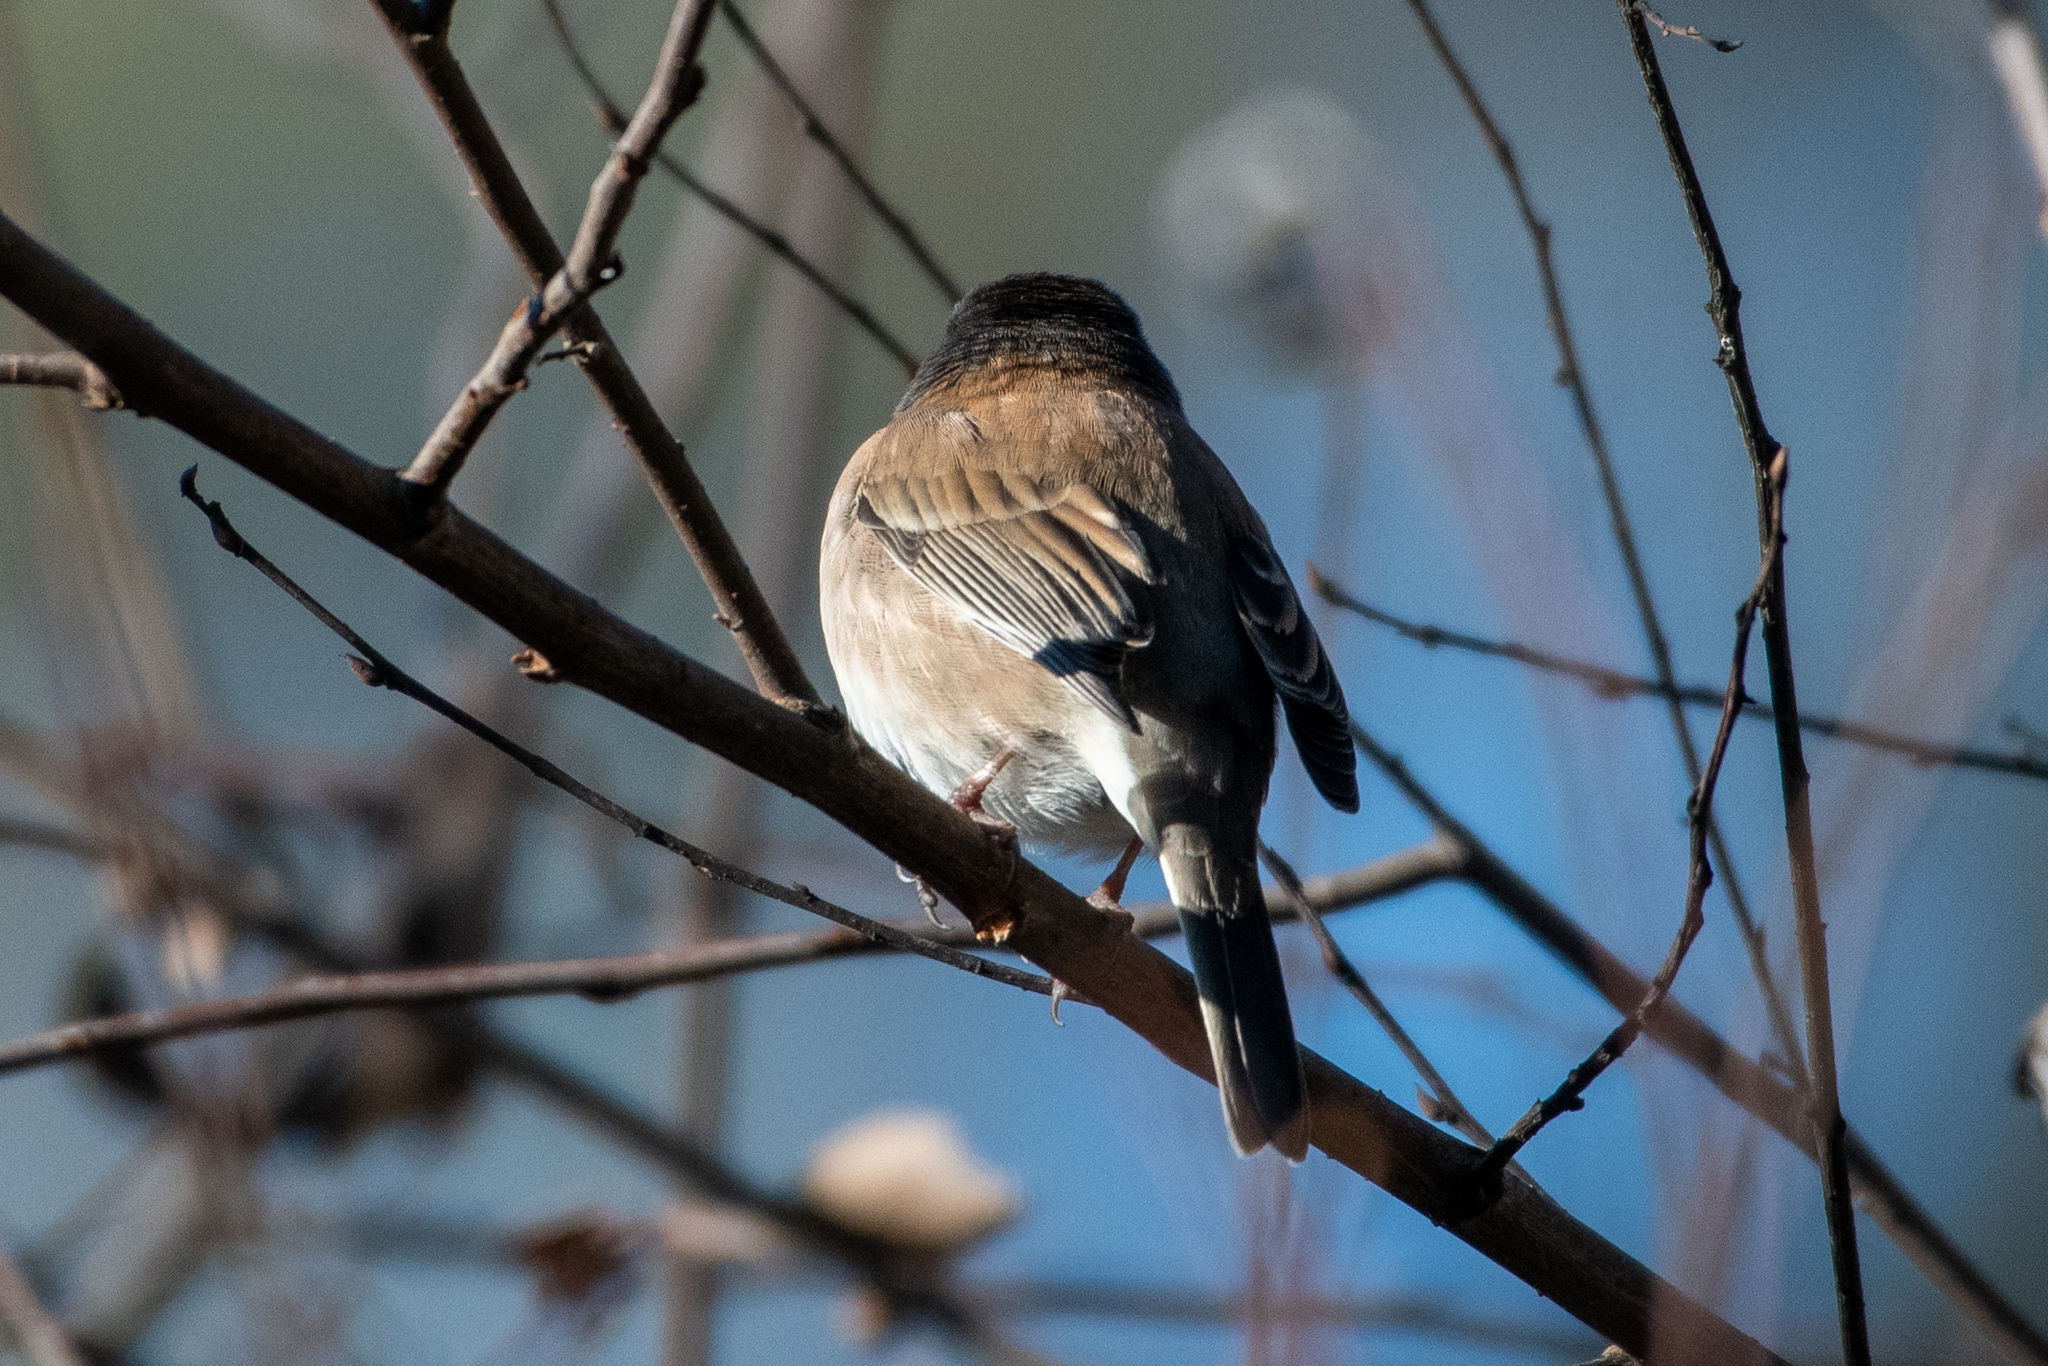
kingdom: Animalia
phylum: Chordata
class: Aves
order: Passeriformes
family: Passerellidae
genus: Junco
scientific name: Junco hyemalis
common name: Dark-eyed junco
